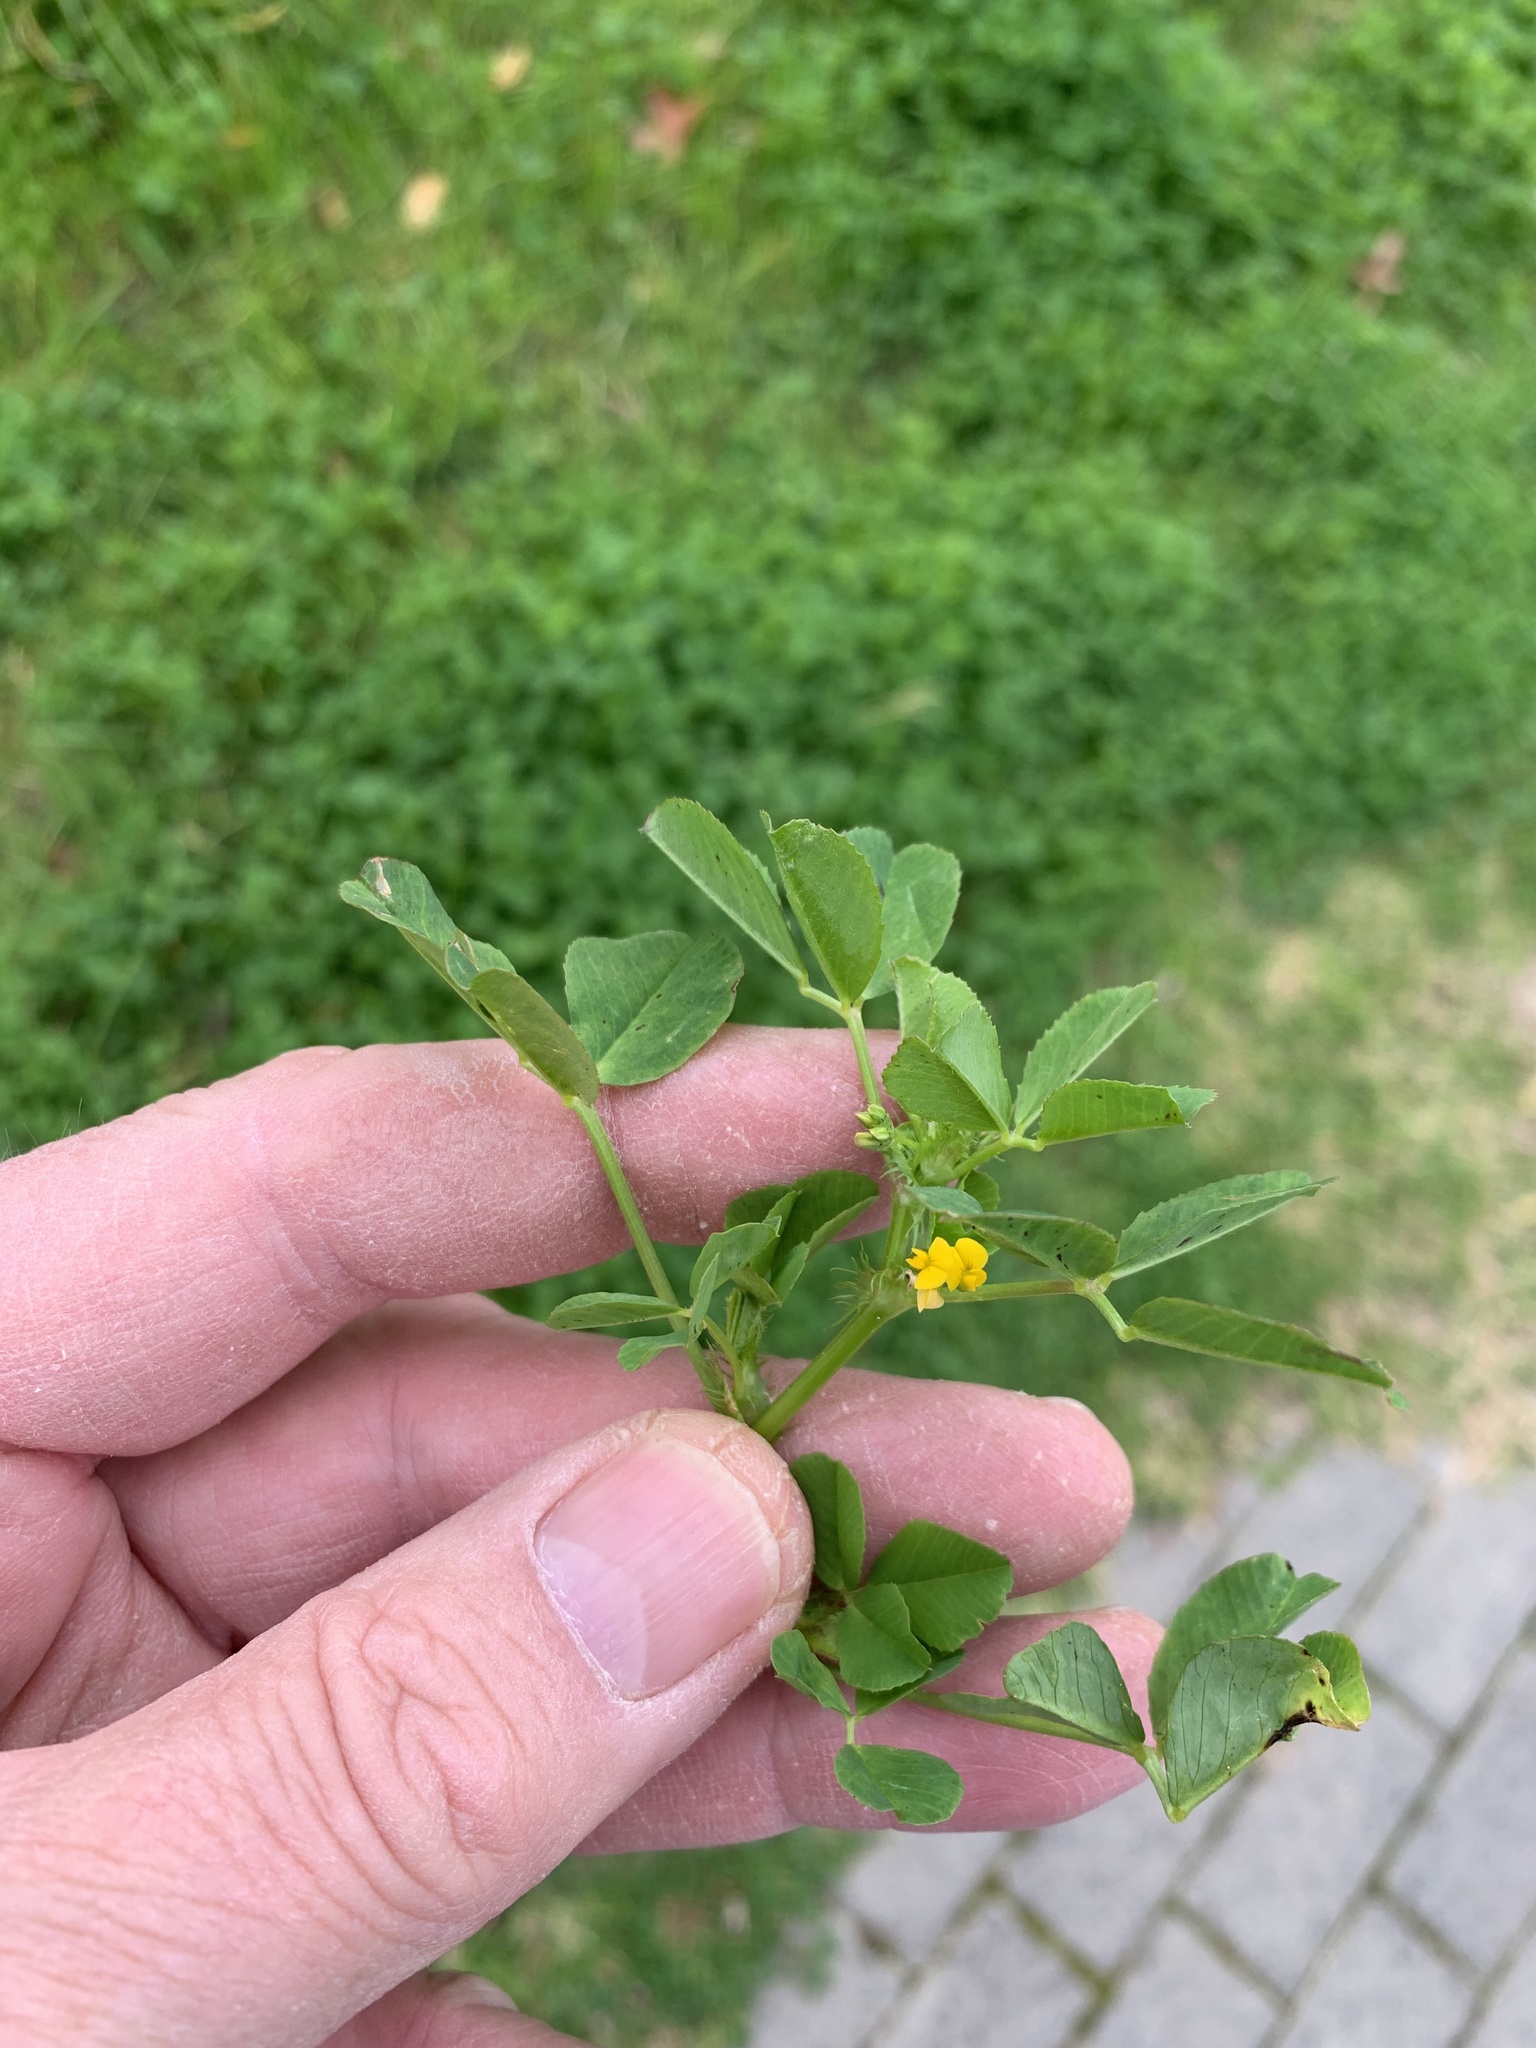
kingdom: Plantae
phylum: Tracheophyta
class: Magnoliopsida
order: Fabales
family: Fabaceae
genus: Medicago
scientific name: Medicago polymorpha
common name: Burclover
